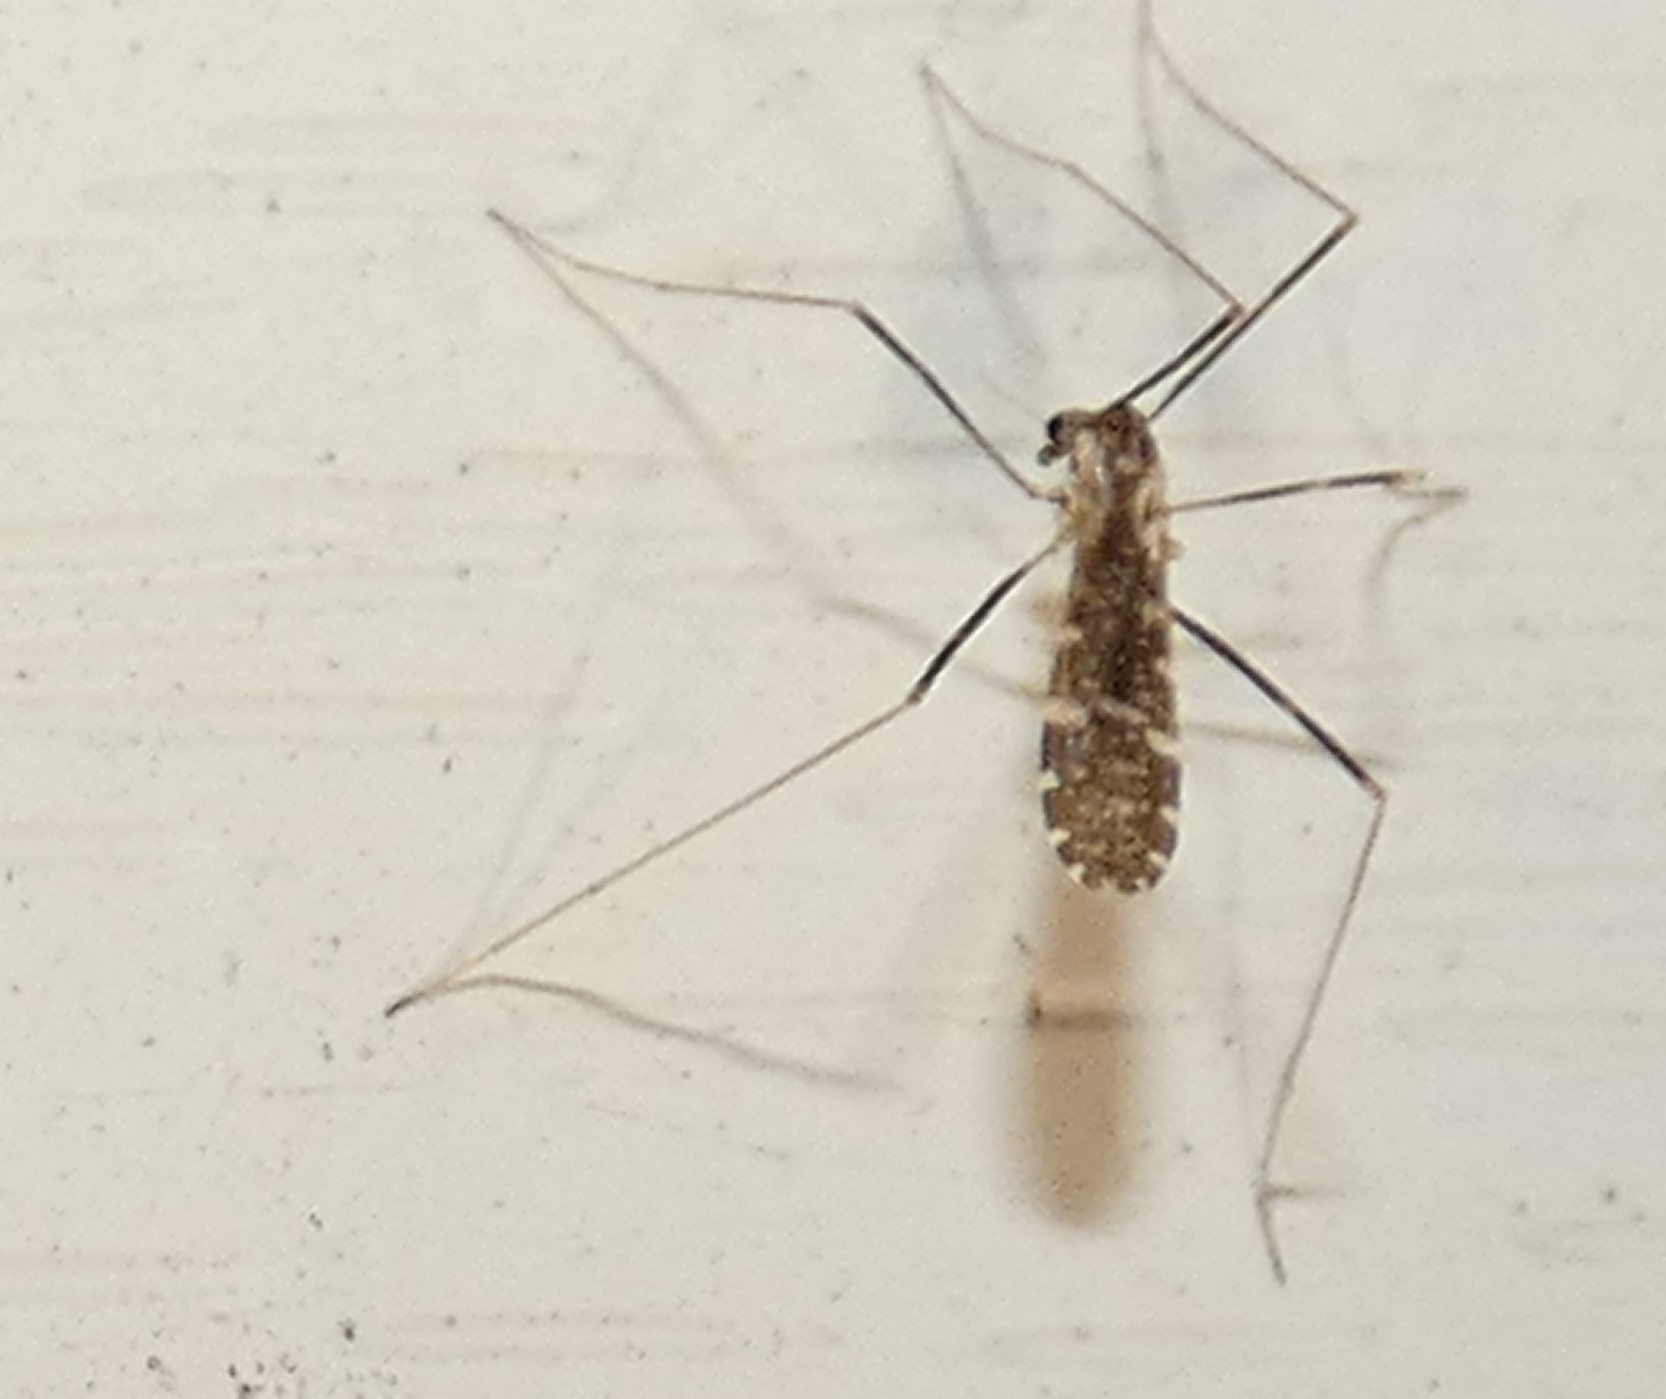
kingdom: Animalia
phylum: Arthropoda
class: Insecta
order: Diptera
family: Limoniidae
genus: Erioptera
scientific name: Erioptera caliptera
